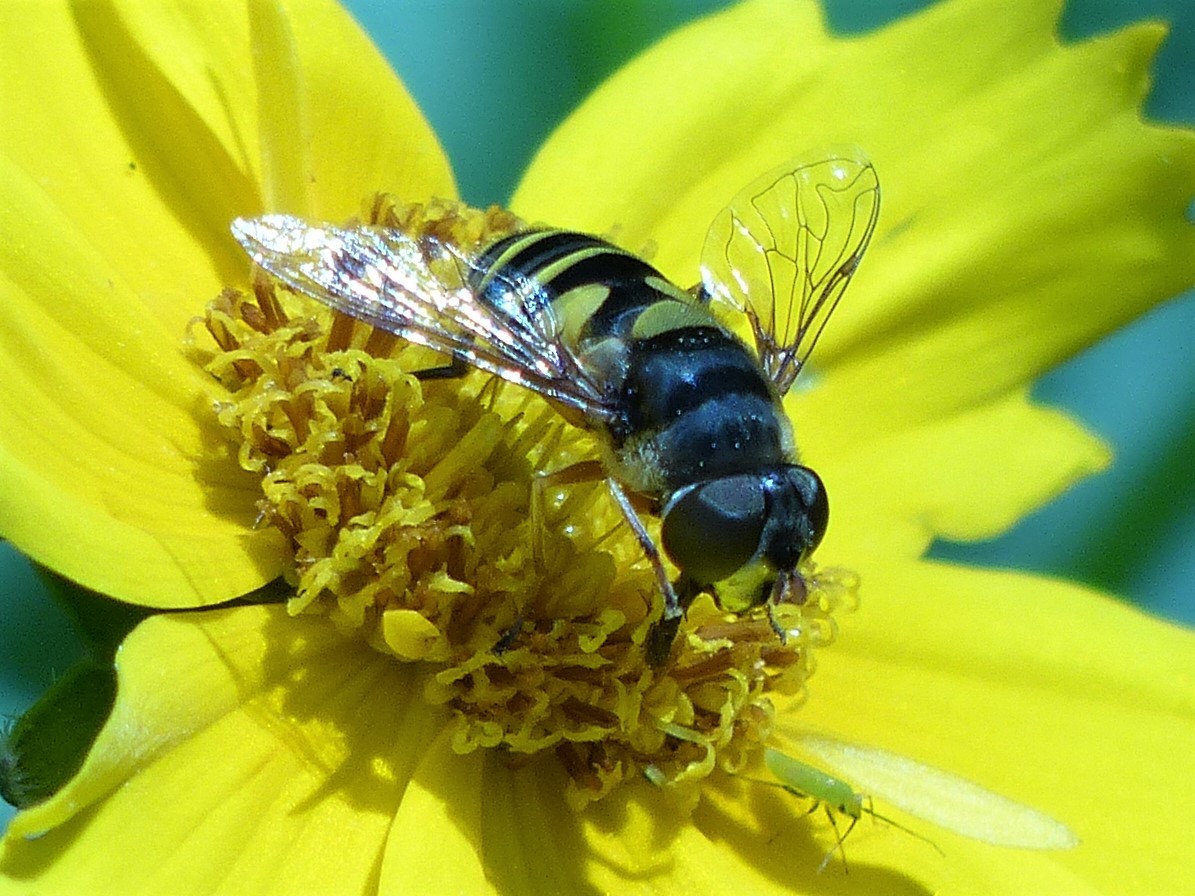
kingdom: Animalia
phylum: Arthropoda
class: Insecta
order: Diptera
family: Syrphidae
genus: Eristalis
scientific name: Eristalis transversa
